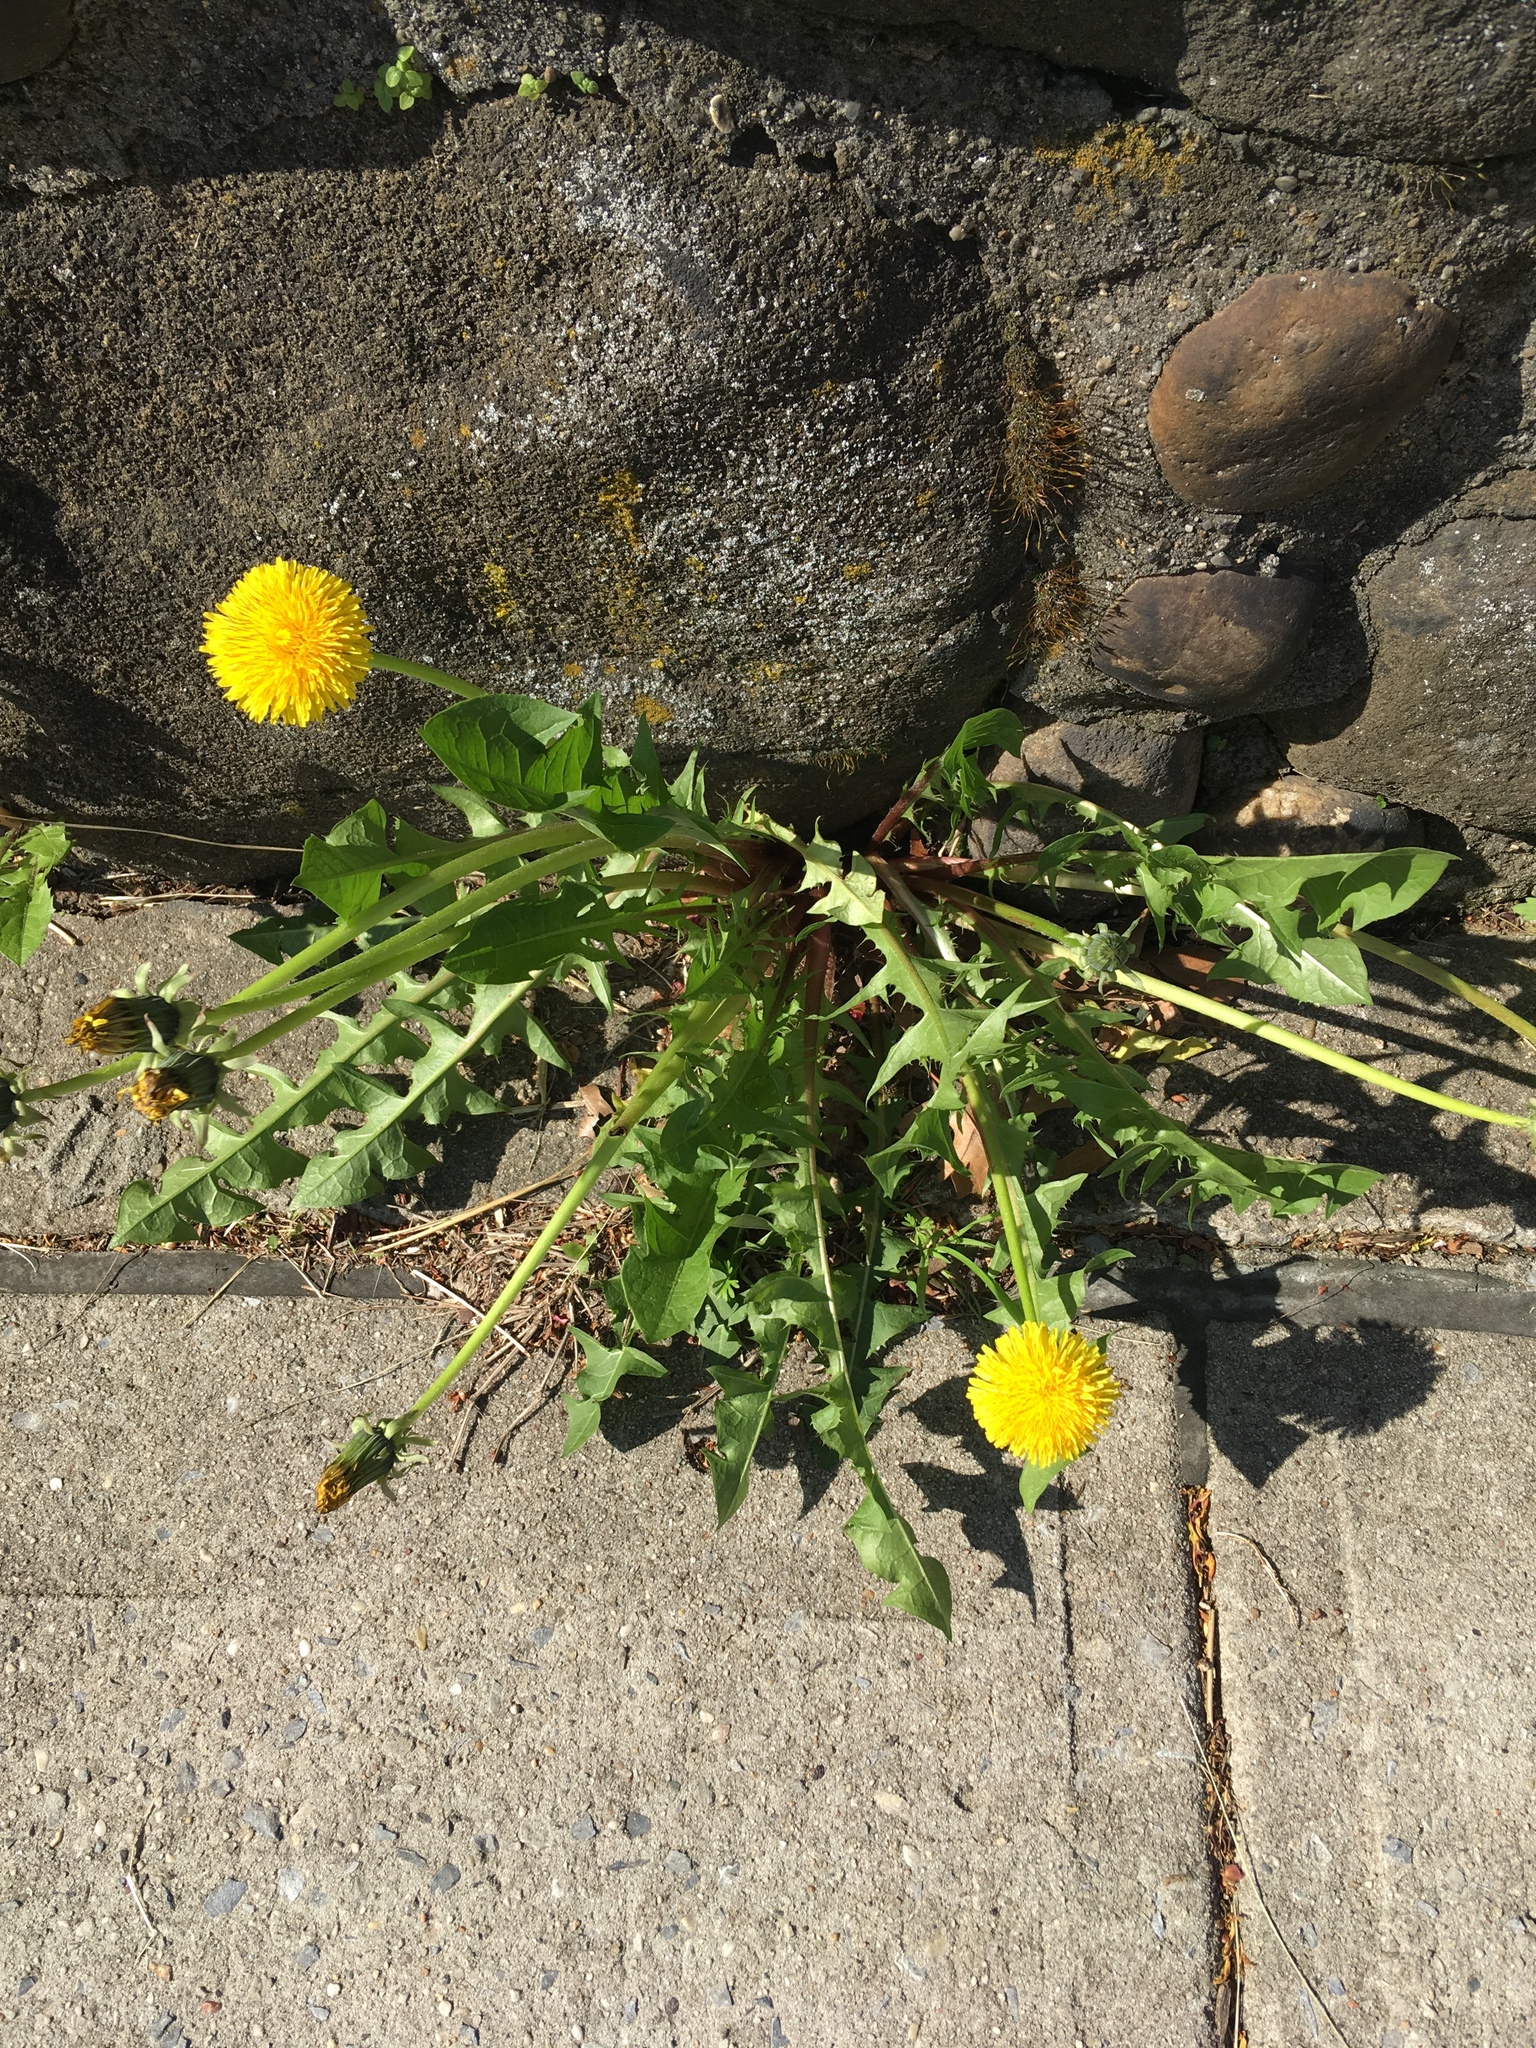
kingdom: Plantae
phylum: Tracheophyta
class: Magnoliopsida
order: Asterales
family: Asteraceae
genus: Taraxacum
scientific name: Taraxacum officinale
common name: Common dandelion
